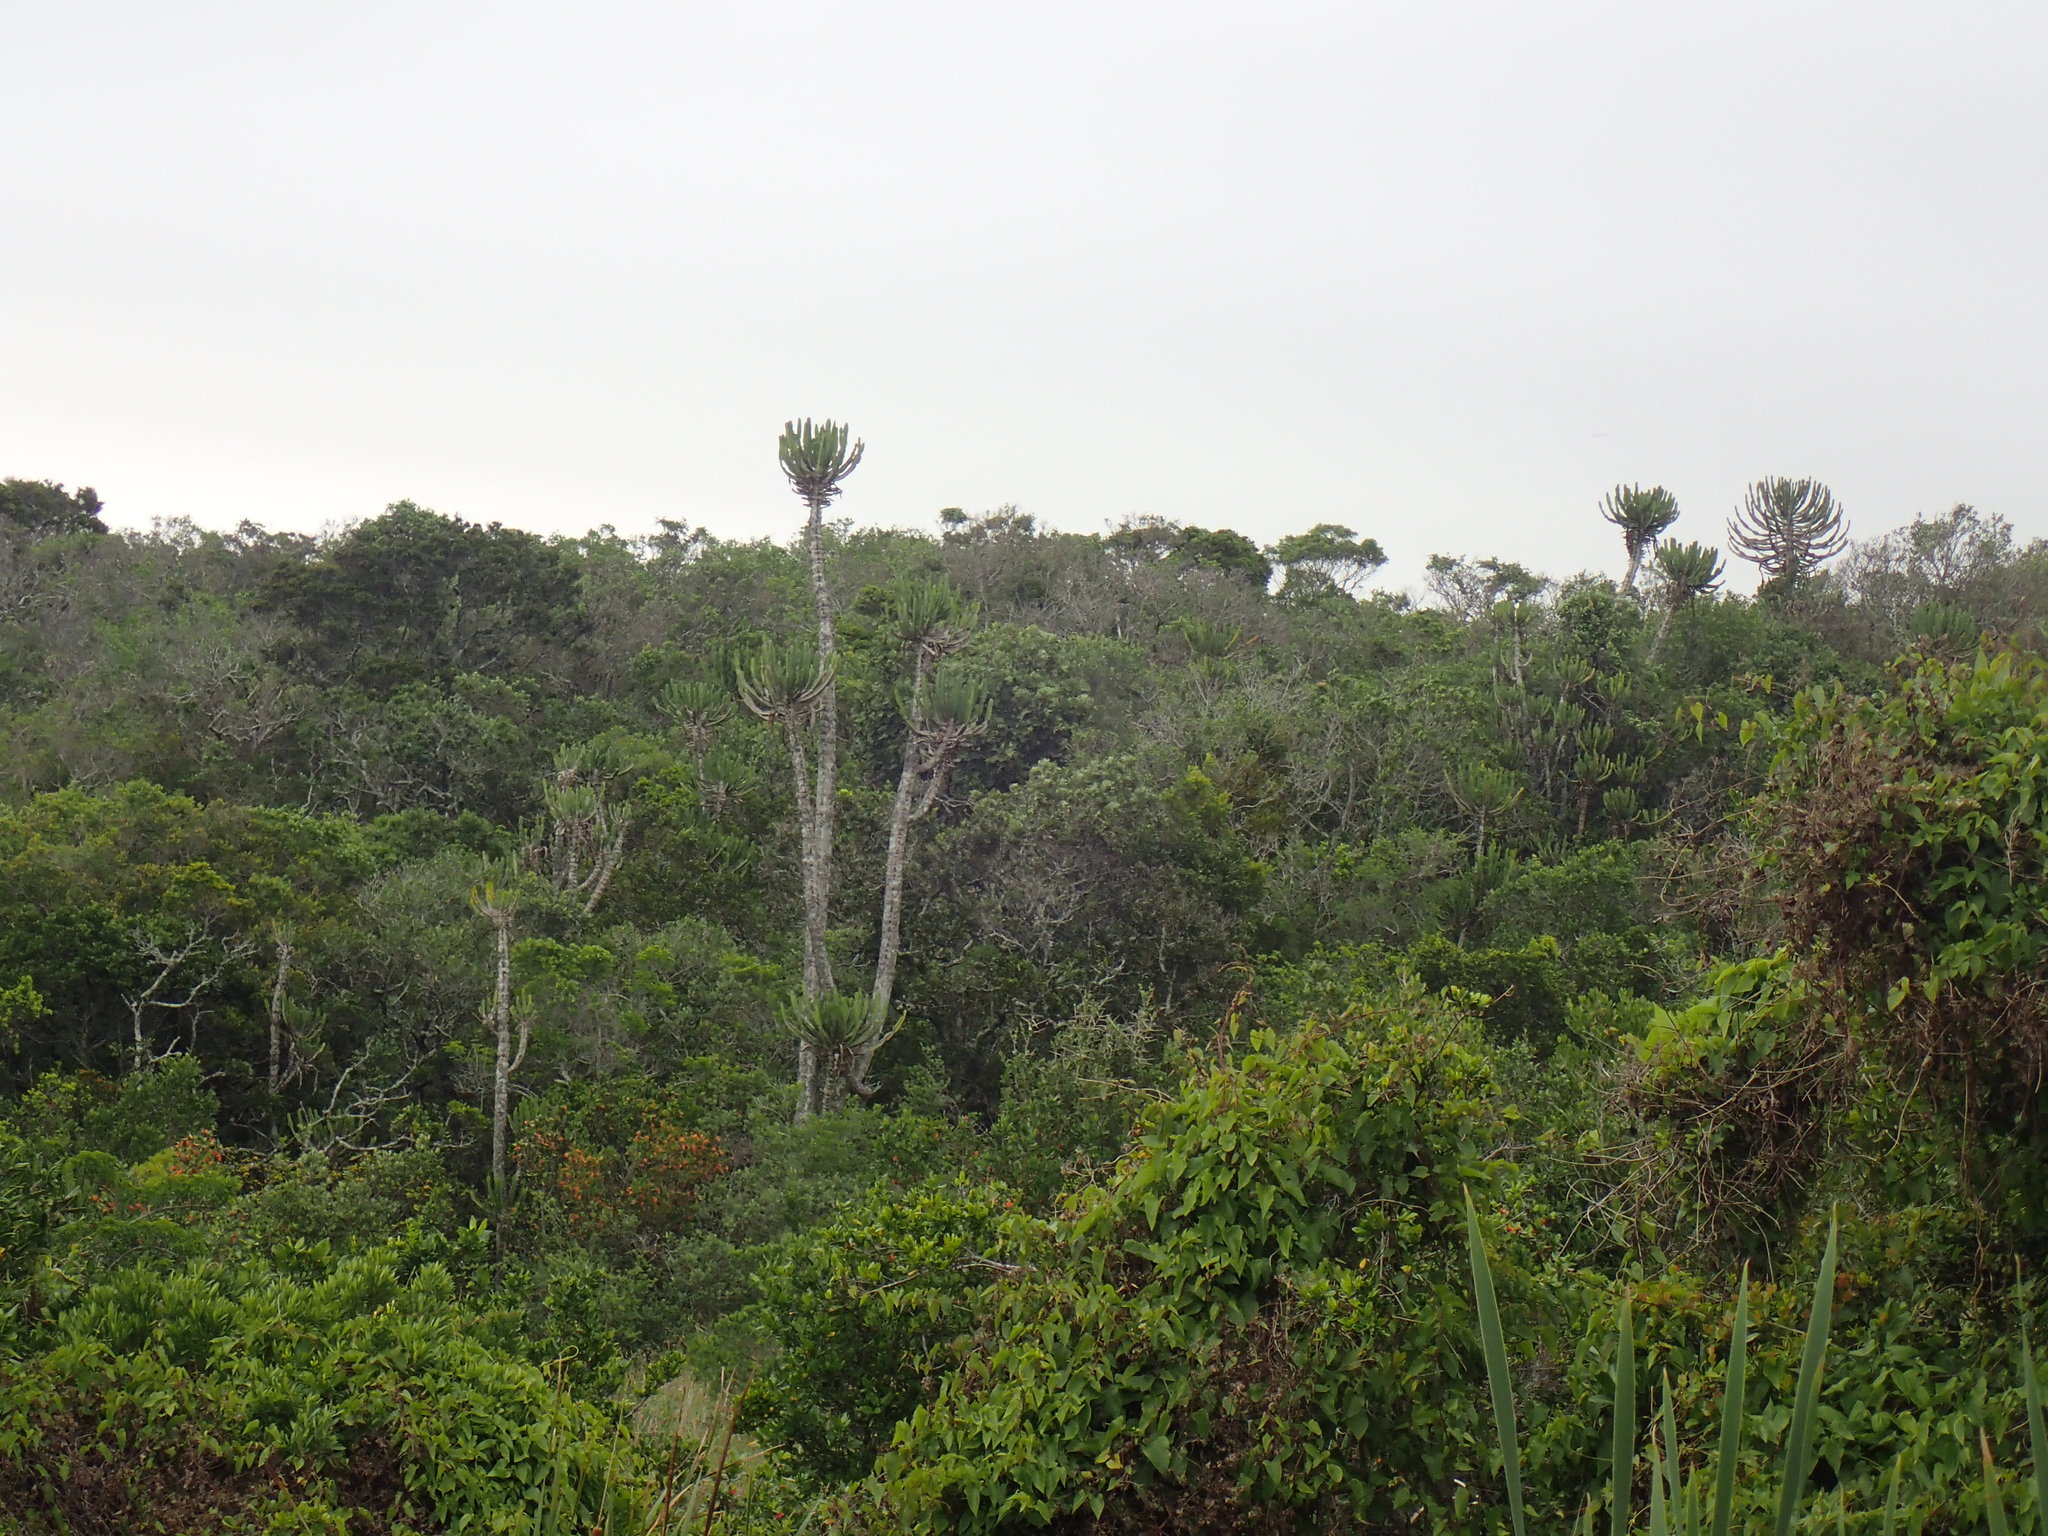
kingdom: Plantae
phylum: Tracheophyta
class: Magnoliopsida
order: Malpighiales
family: Euphorbiaceae
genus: Euphorbia
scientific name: Euphorbia triangularis
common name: Chandelier tree
